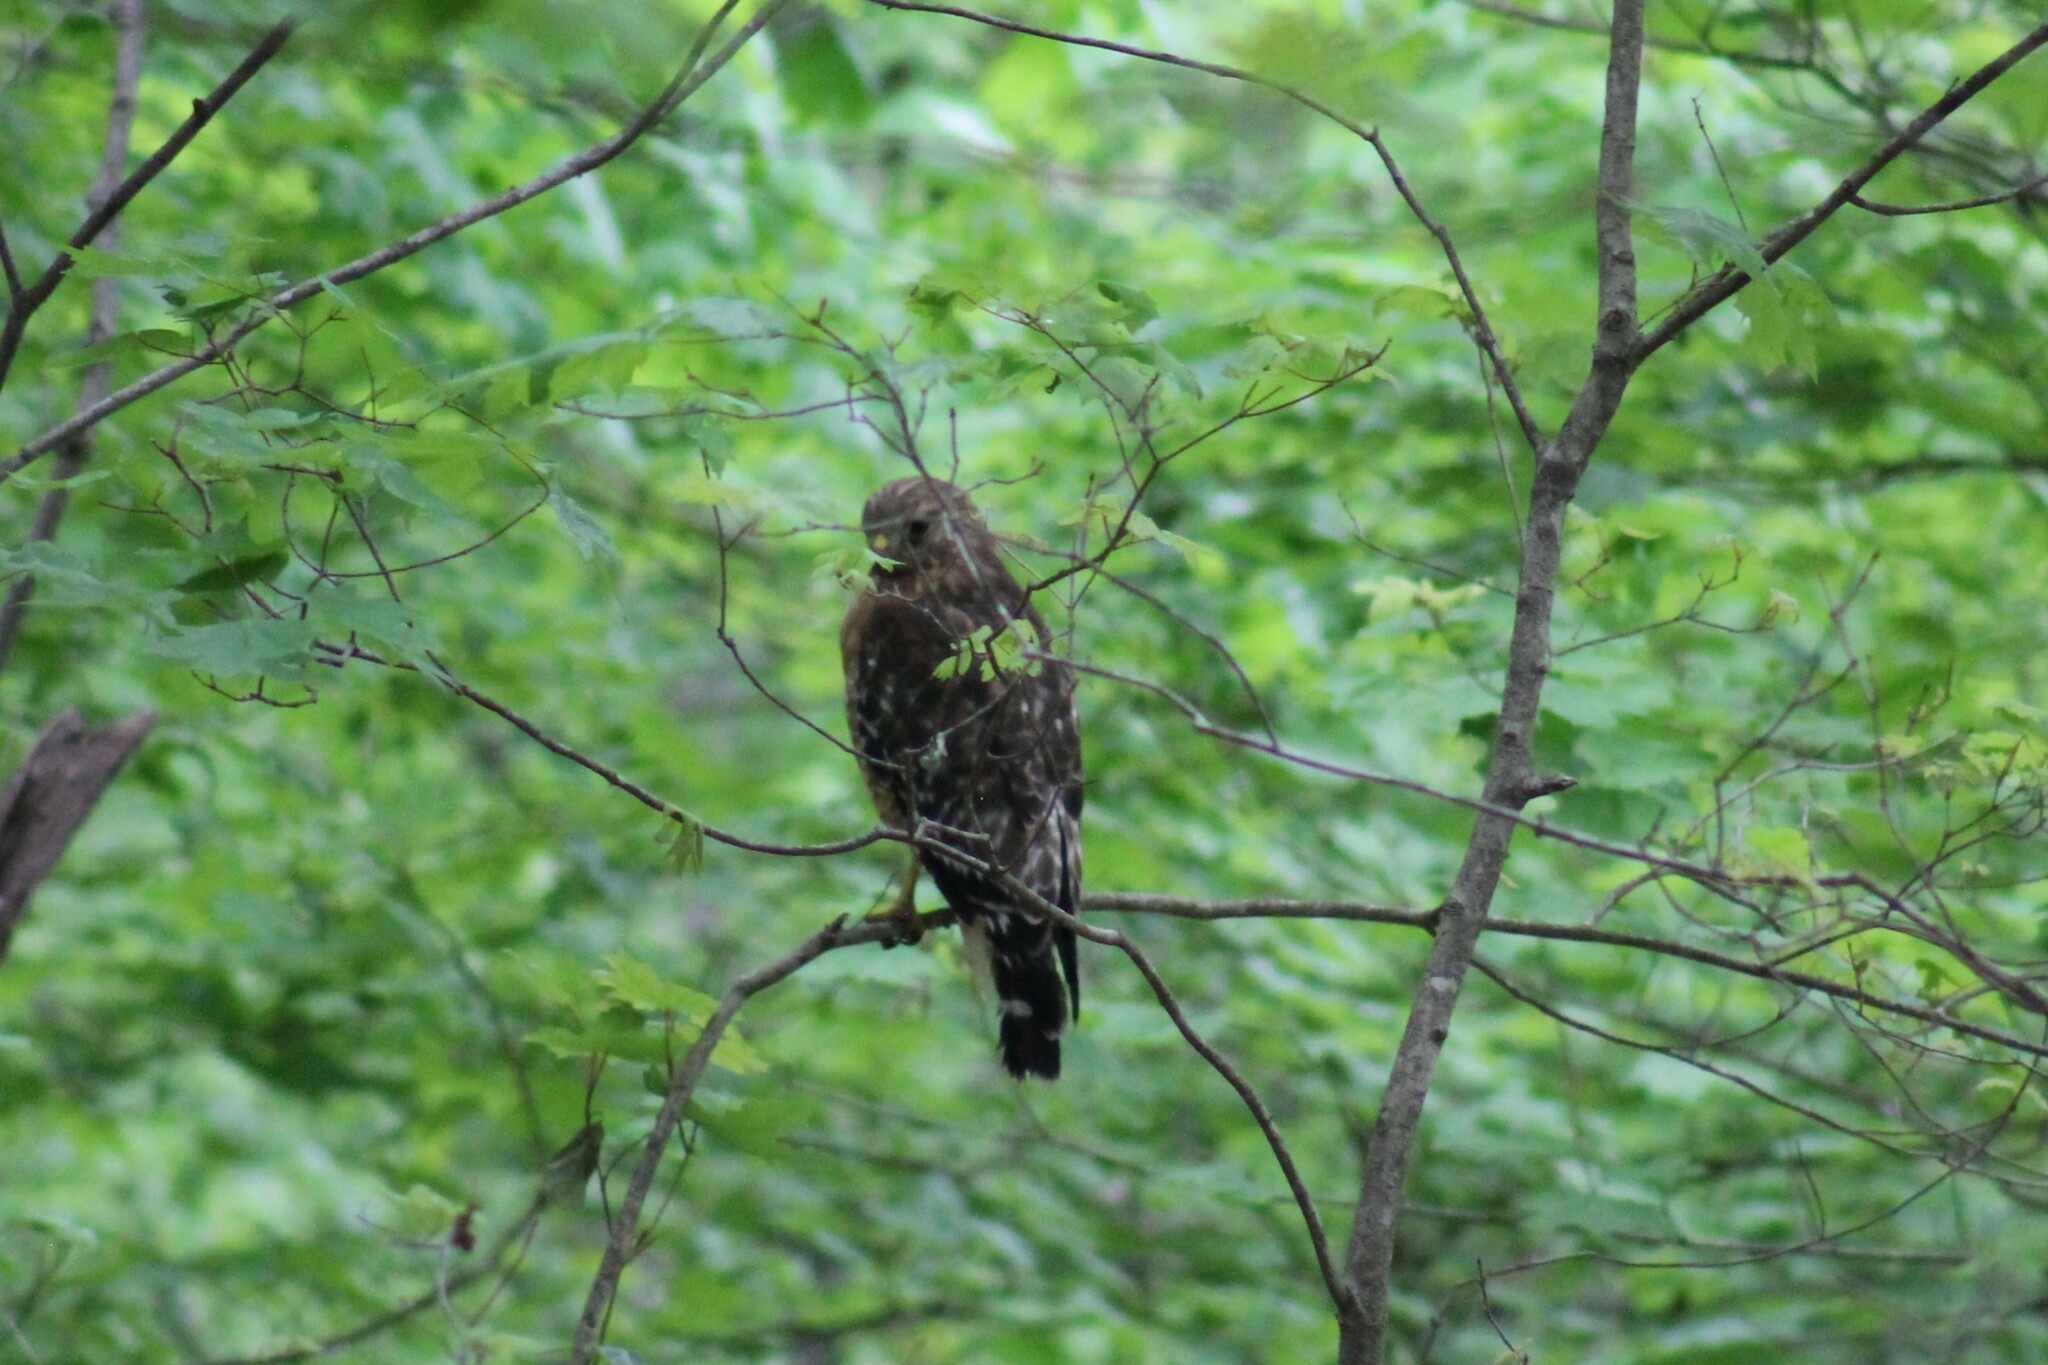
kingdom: Animalia
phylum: Chordata
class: Aves
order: Accipitriformes
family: Accipitridae
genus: Buteo
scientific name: Buteo lineatus
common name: Red-shouldered hawk
